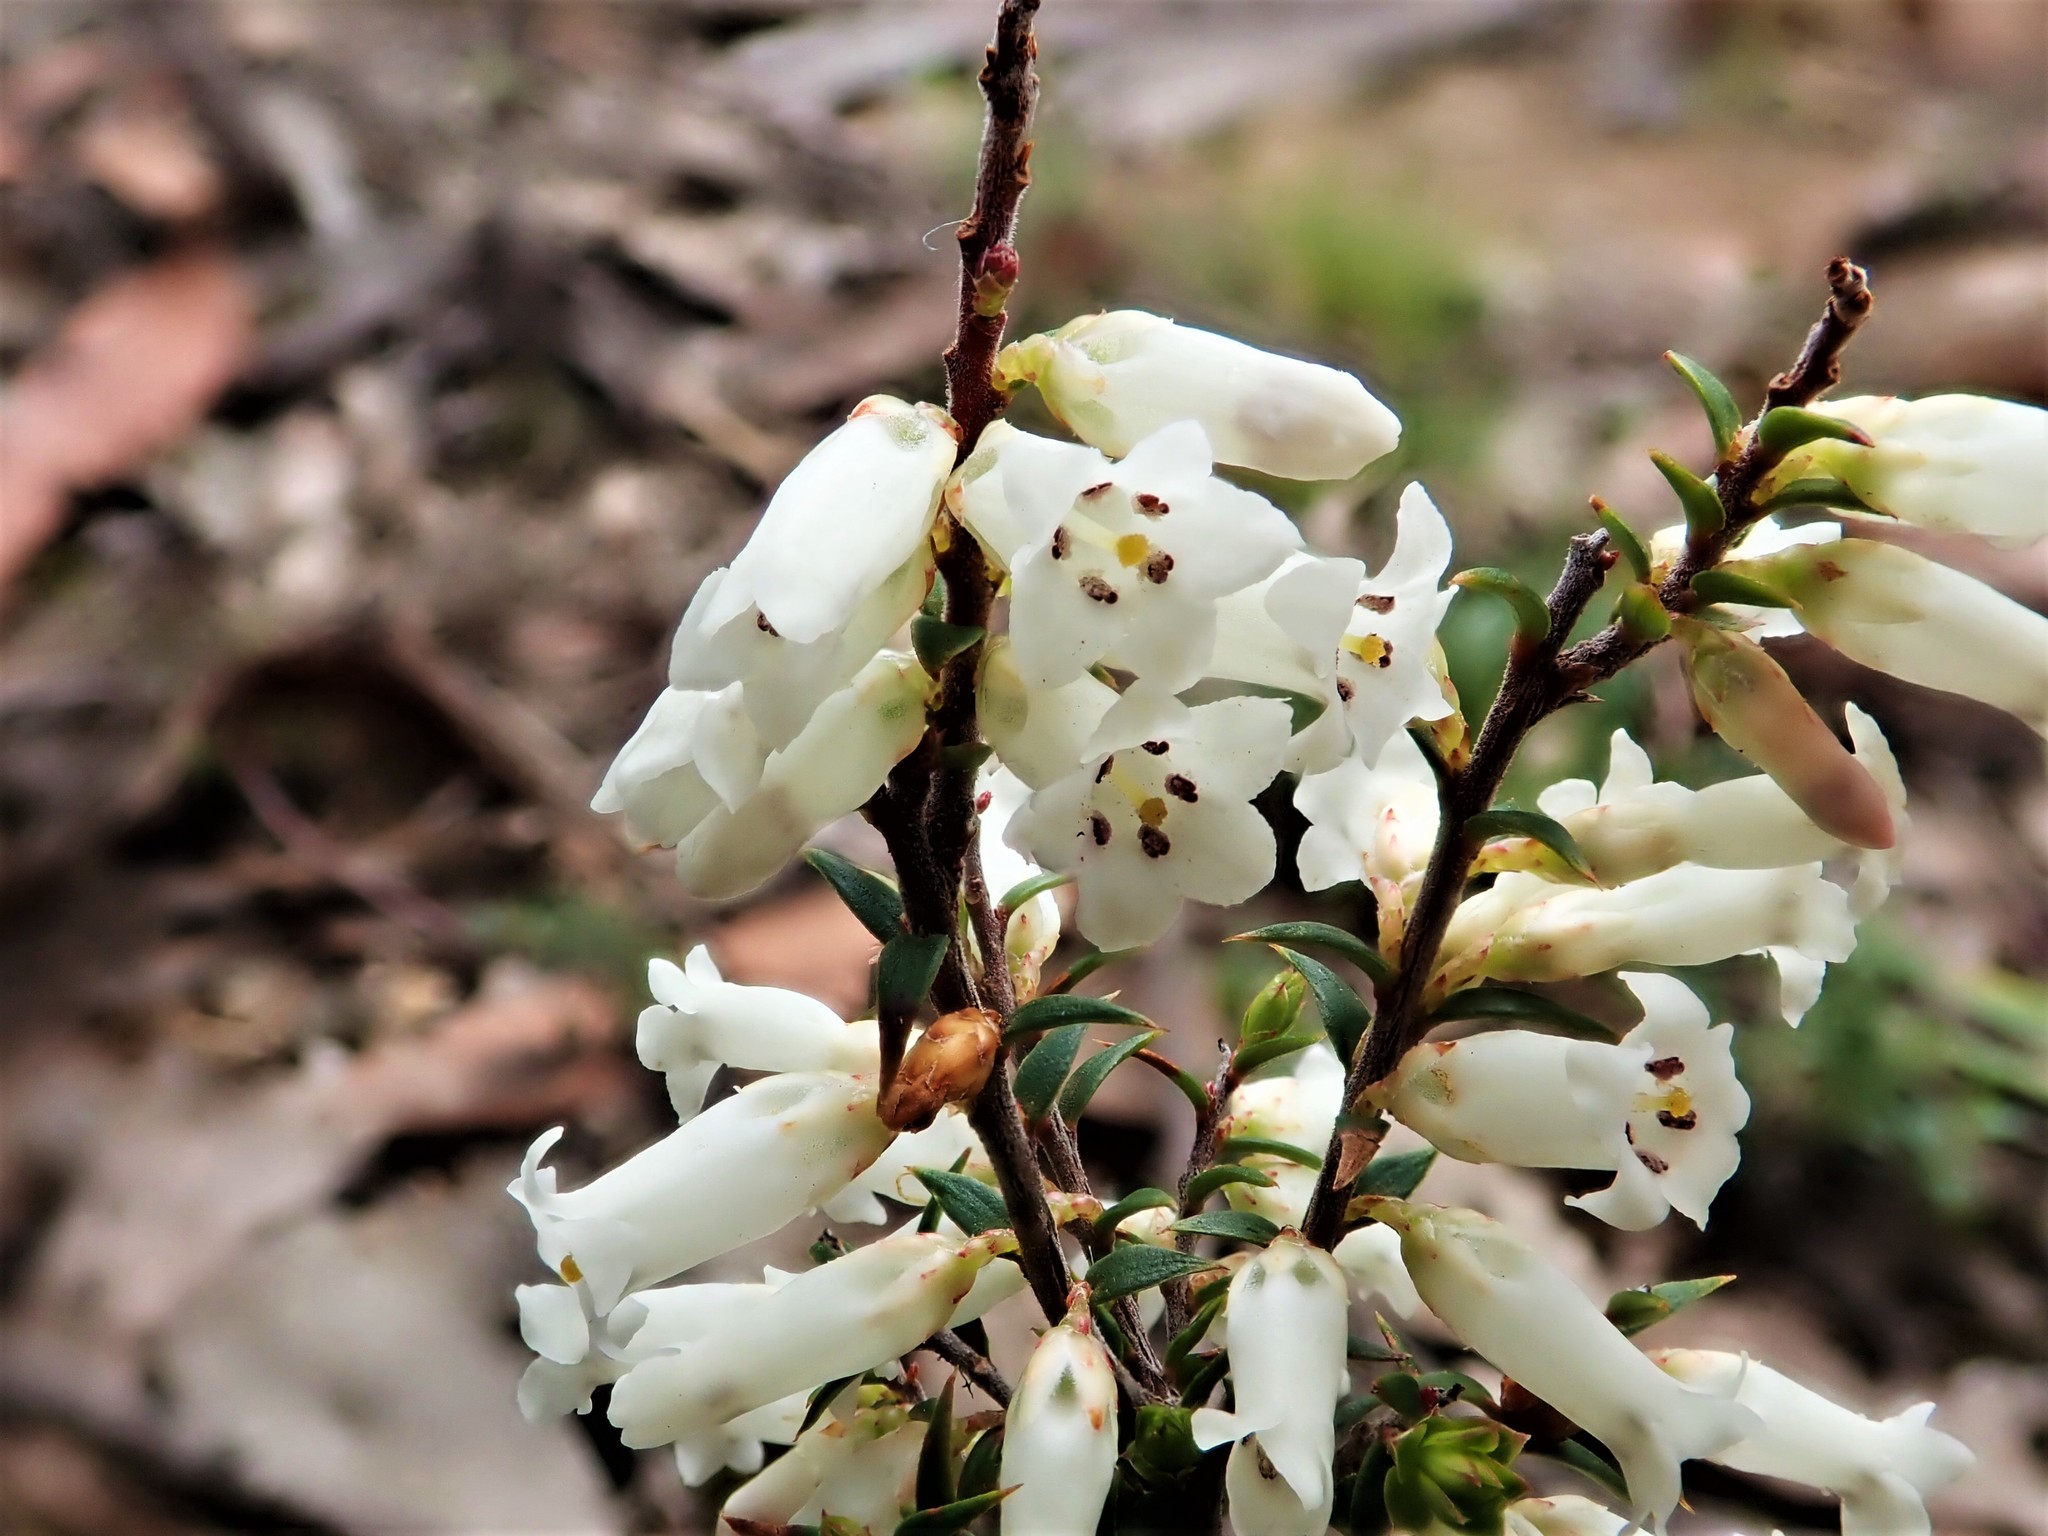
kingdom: Plantae
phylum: Tracheophyta
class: Magnoliopsida
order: Ericales
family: Ericaceae
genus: Epacris
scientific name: Epacris impressa
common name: Common-heath
